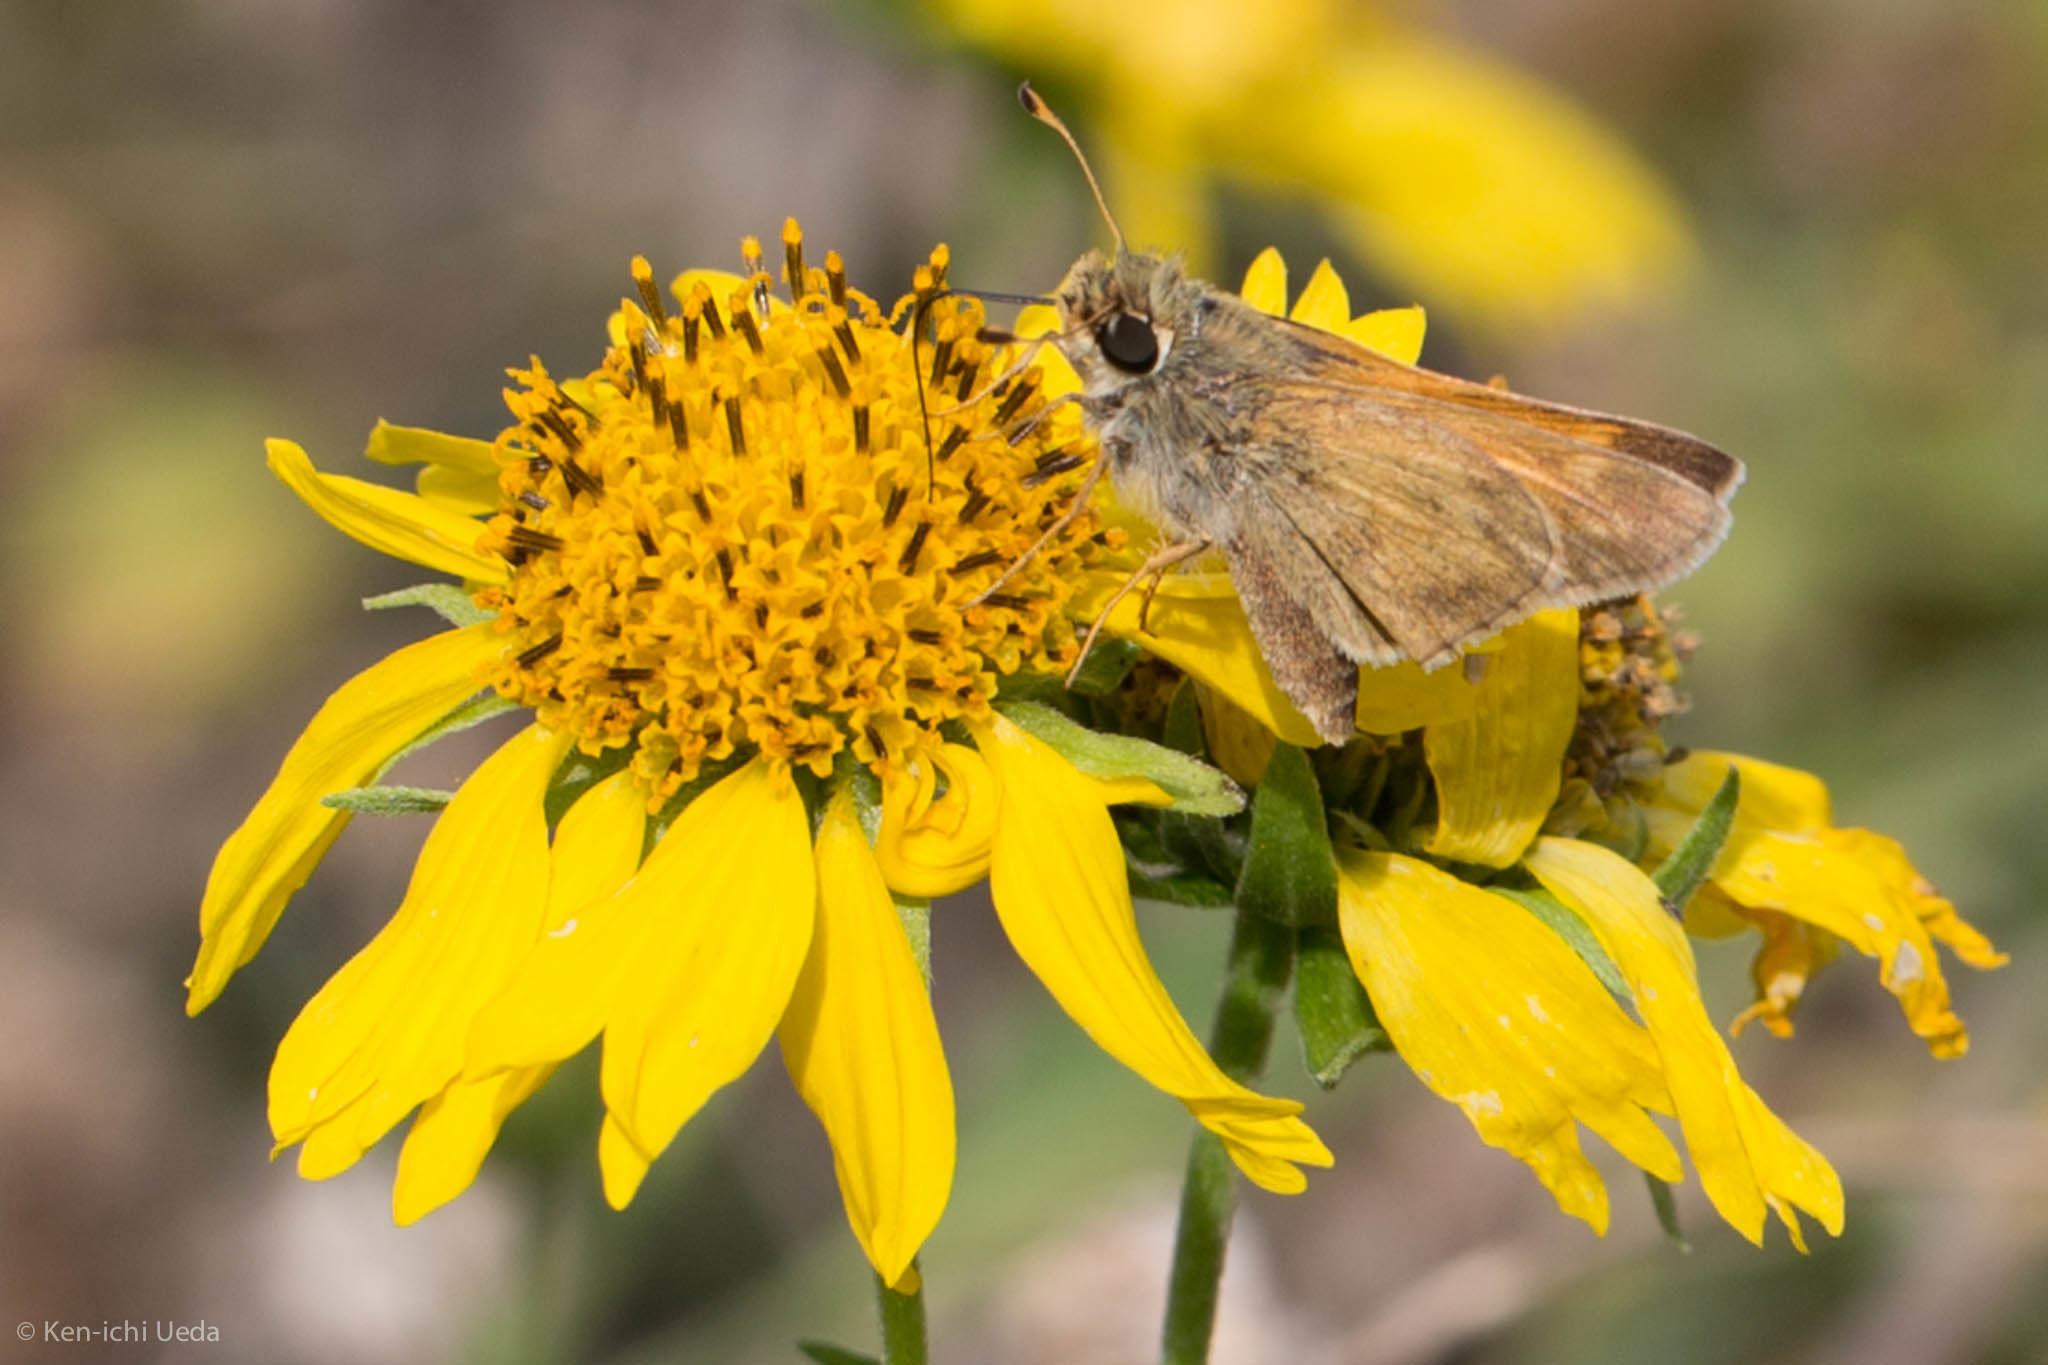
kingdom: Animalia
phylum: Arthropoda
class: Insecta
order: Lepidoptera
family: Hesperiidae
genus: Atalopedes
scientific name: Atalopedes
